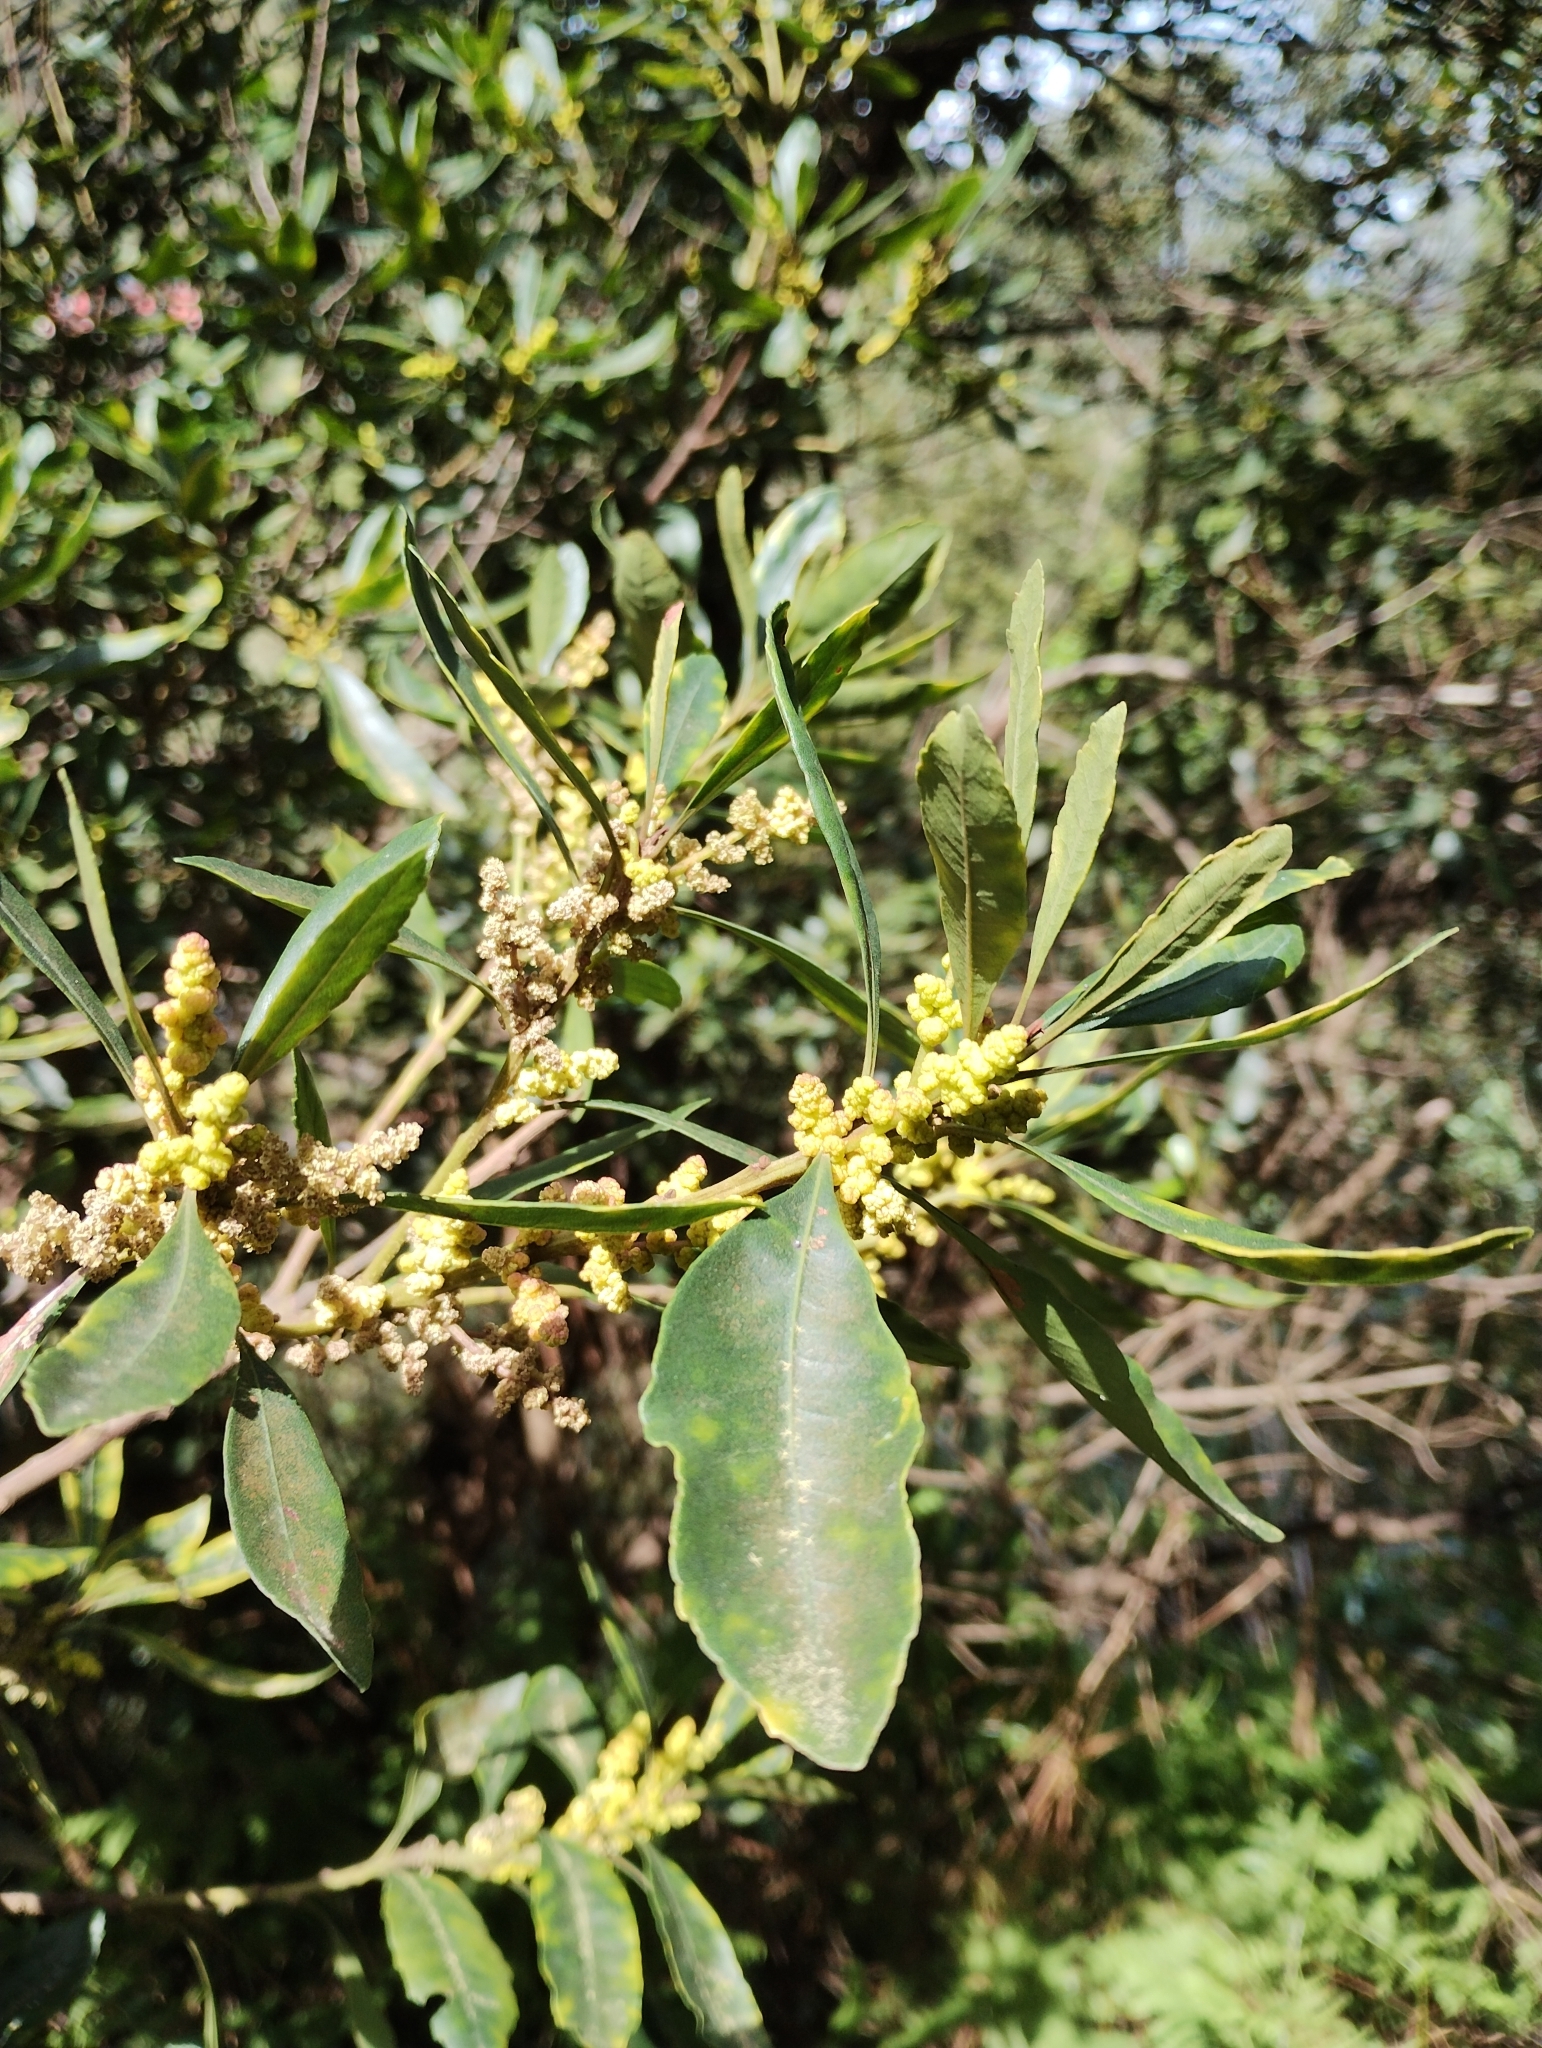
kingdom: Plantae
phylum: Tracheophyta
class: Magnoliopsida
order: Fagales
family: Myricaceae
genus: Morella
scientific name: Morella faya
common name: Firetree
